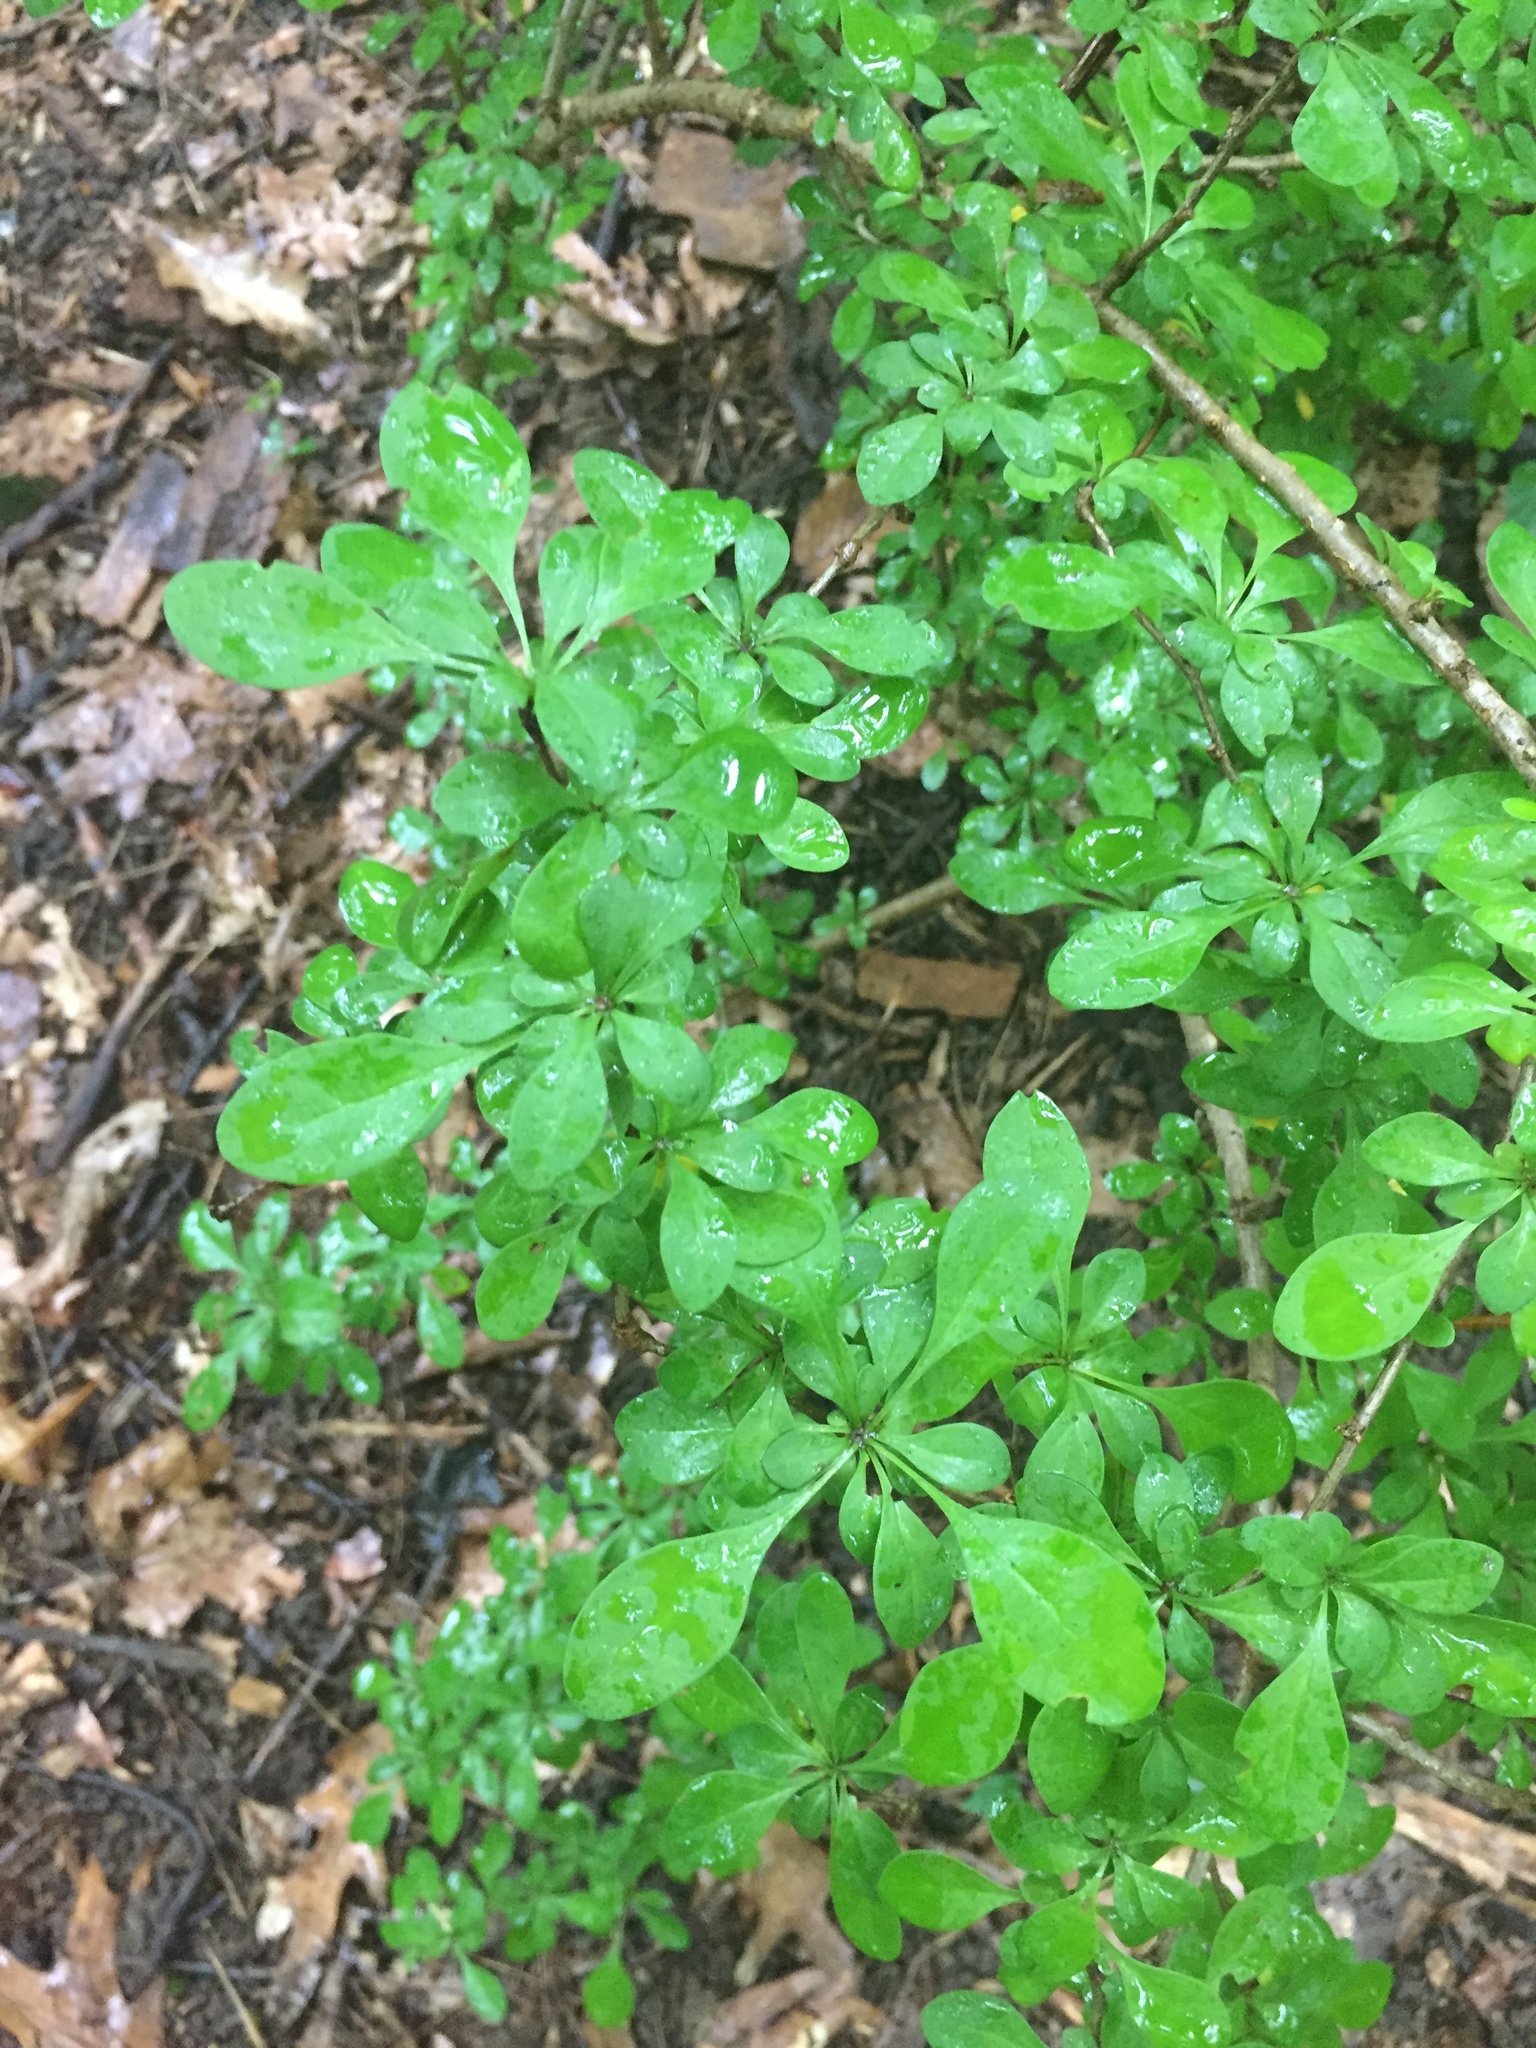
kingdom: Plantae
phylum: Tracheophyta
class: Magnoliopsida
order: Ranunculales
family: Berberidaceae
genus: Berberis
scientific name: Berberis thunbergii
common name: Japanese barberry
